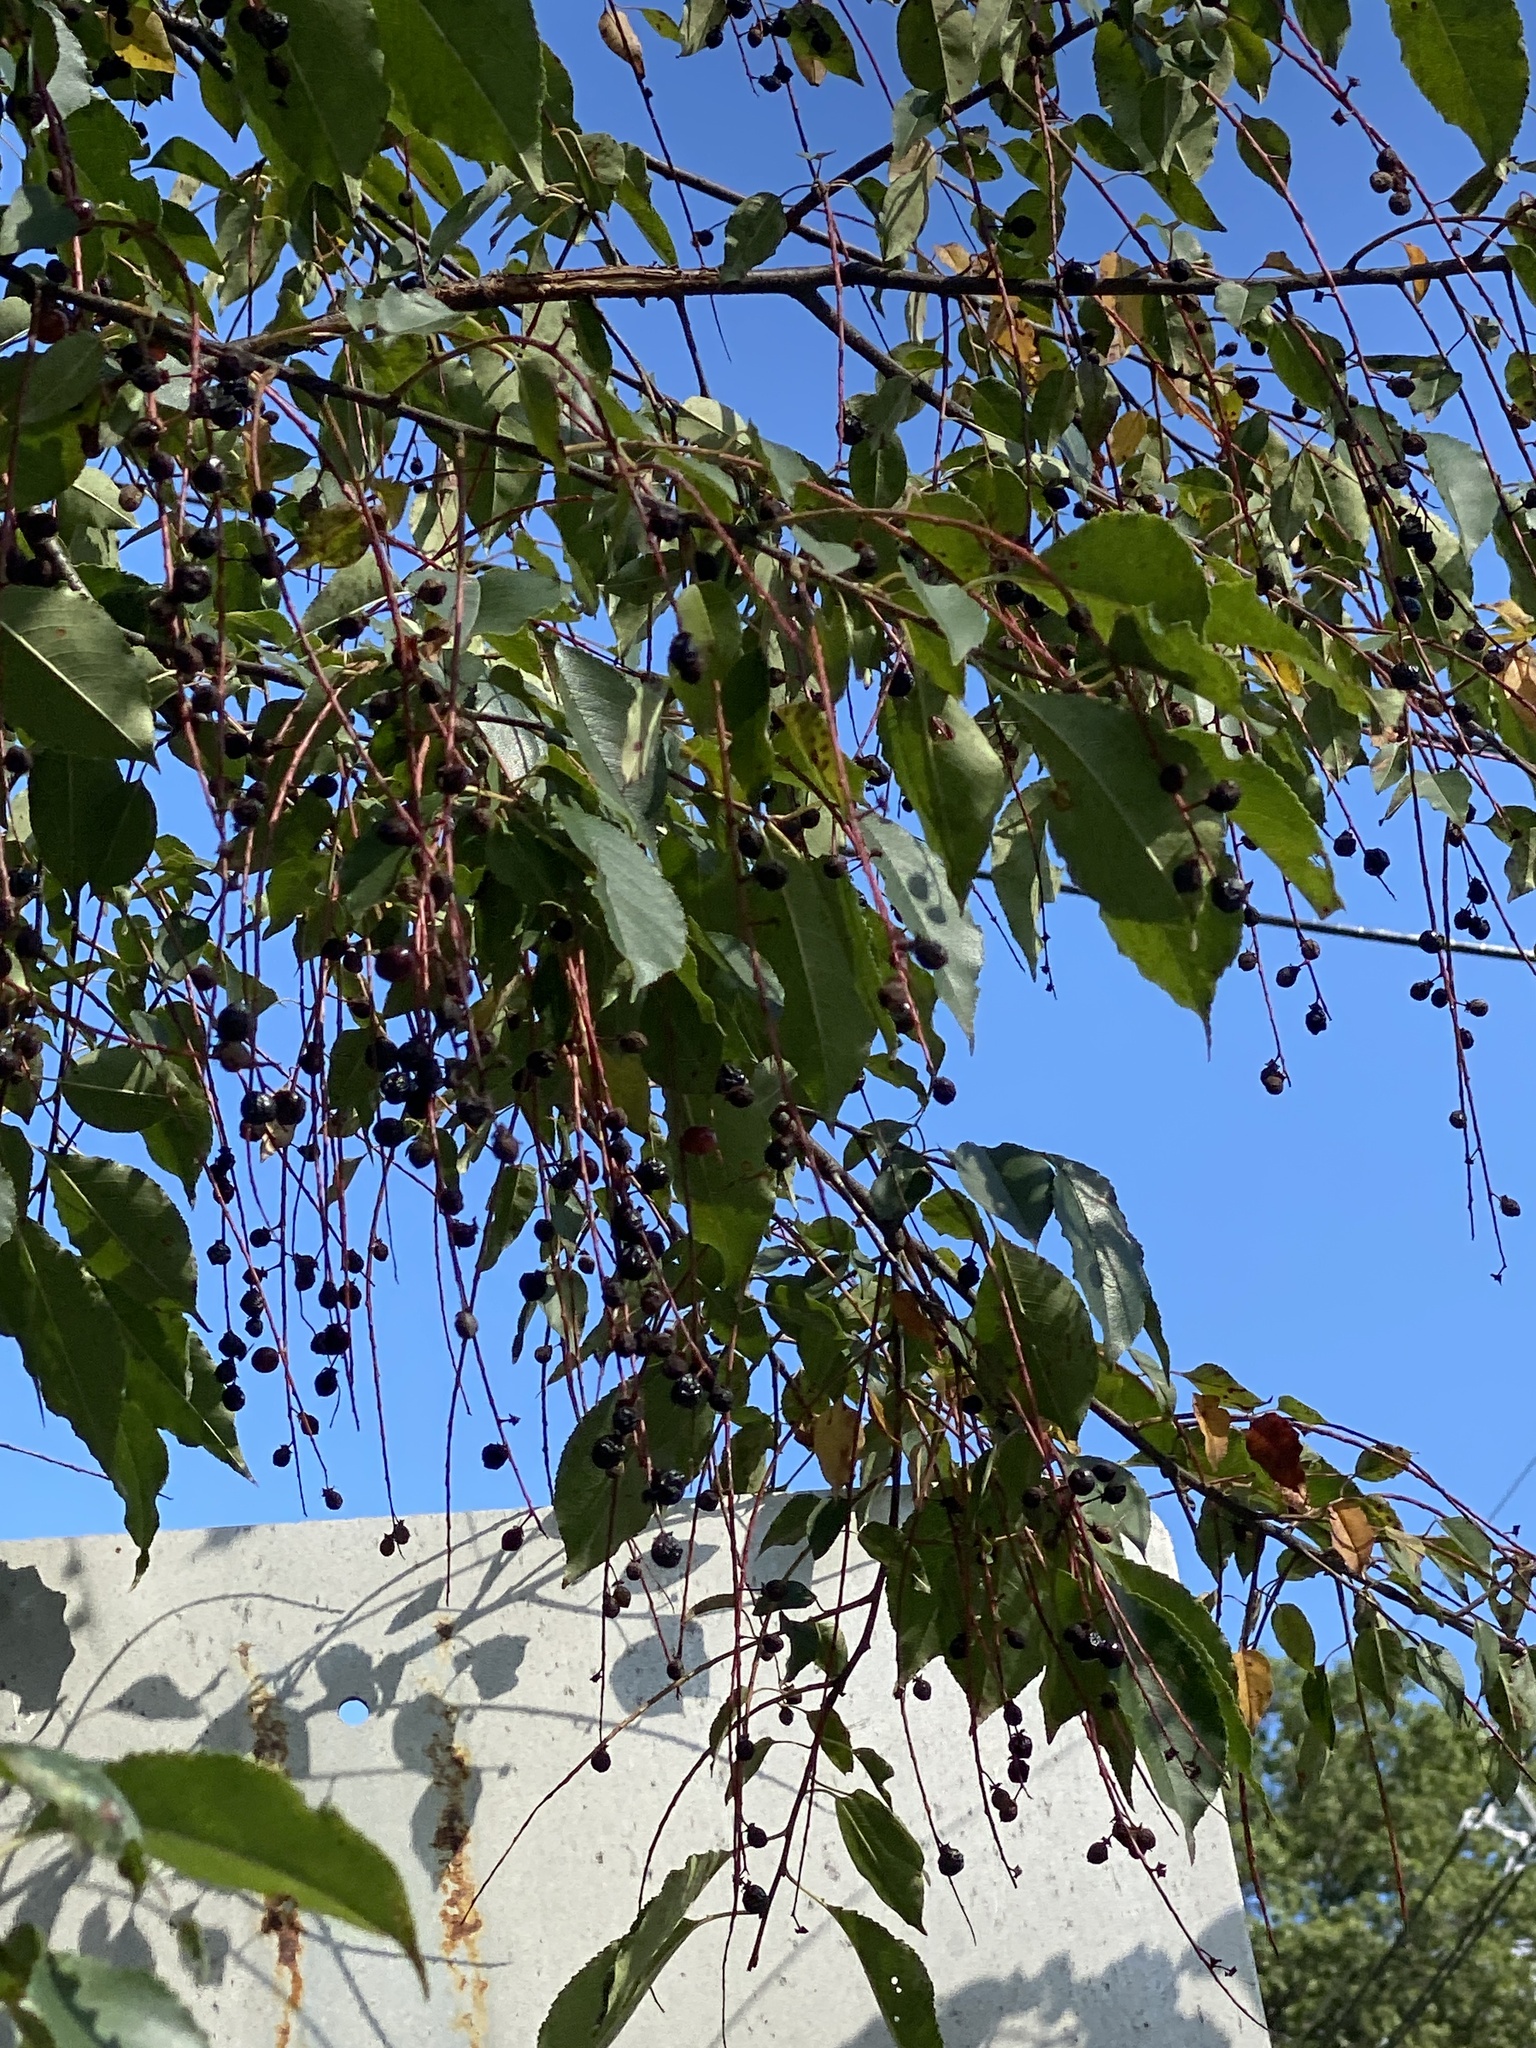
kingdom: Plantae
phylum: Tracheophyta
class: Magnoliopsida
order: Rosales
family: Rosaceae
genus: Prunus
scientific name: Prunus serotina
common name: Black cherry
